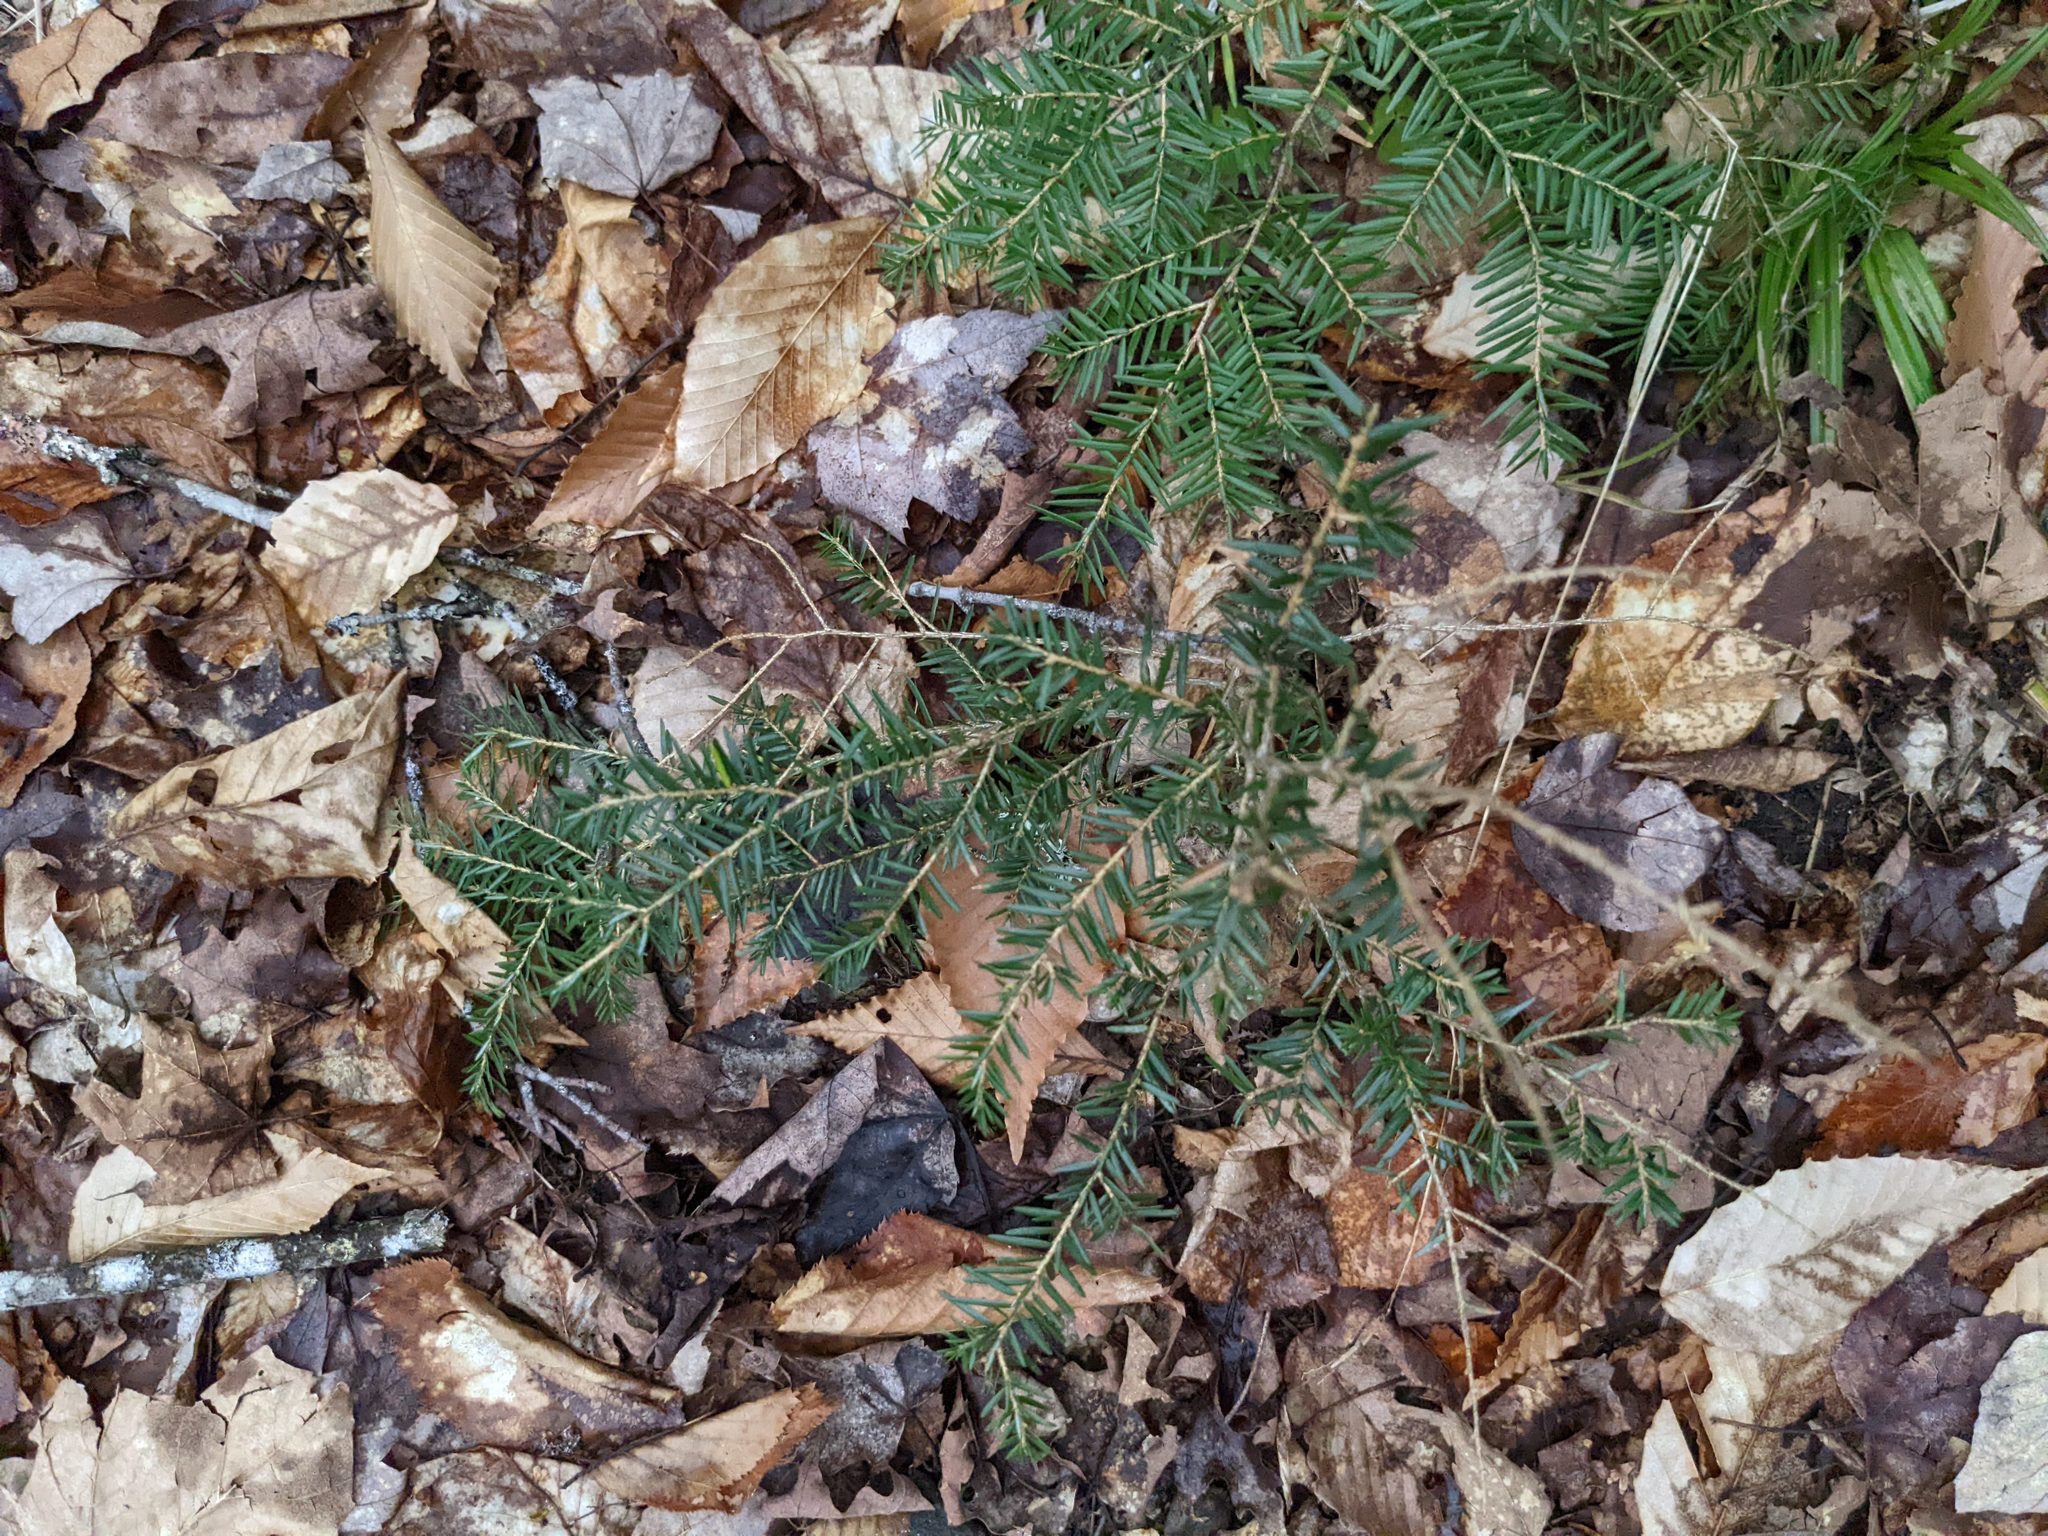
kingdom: Plantae
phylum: Tracheophyta
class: Pinopsida
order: Pinales
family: Pinaceae
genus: Tsuga
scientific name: Tsuga canadensis
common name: Eastern hemlock
